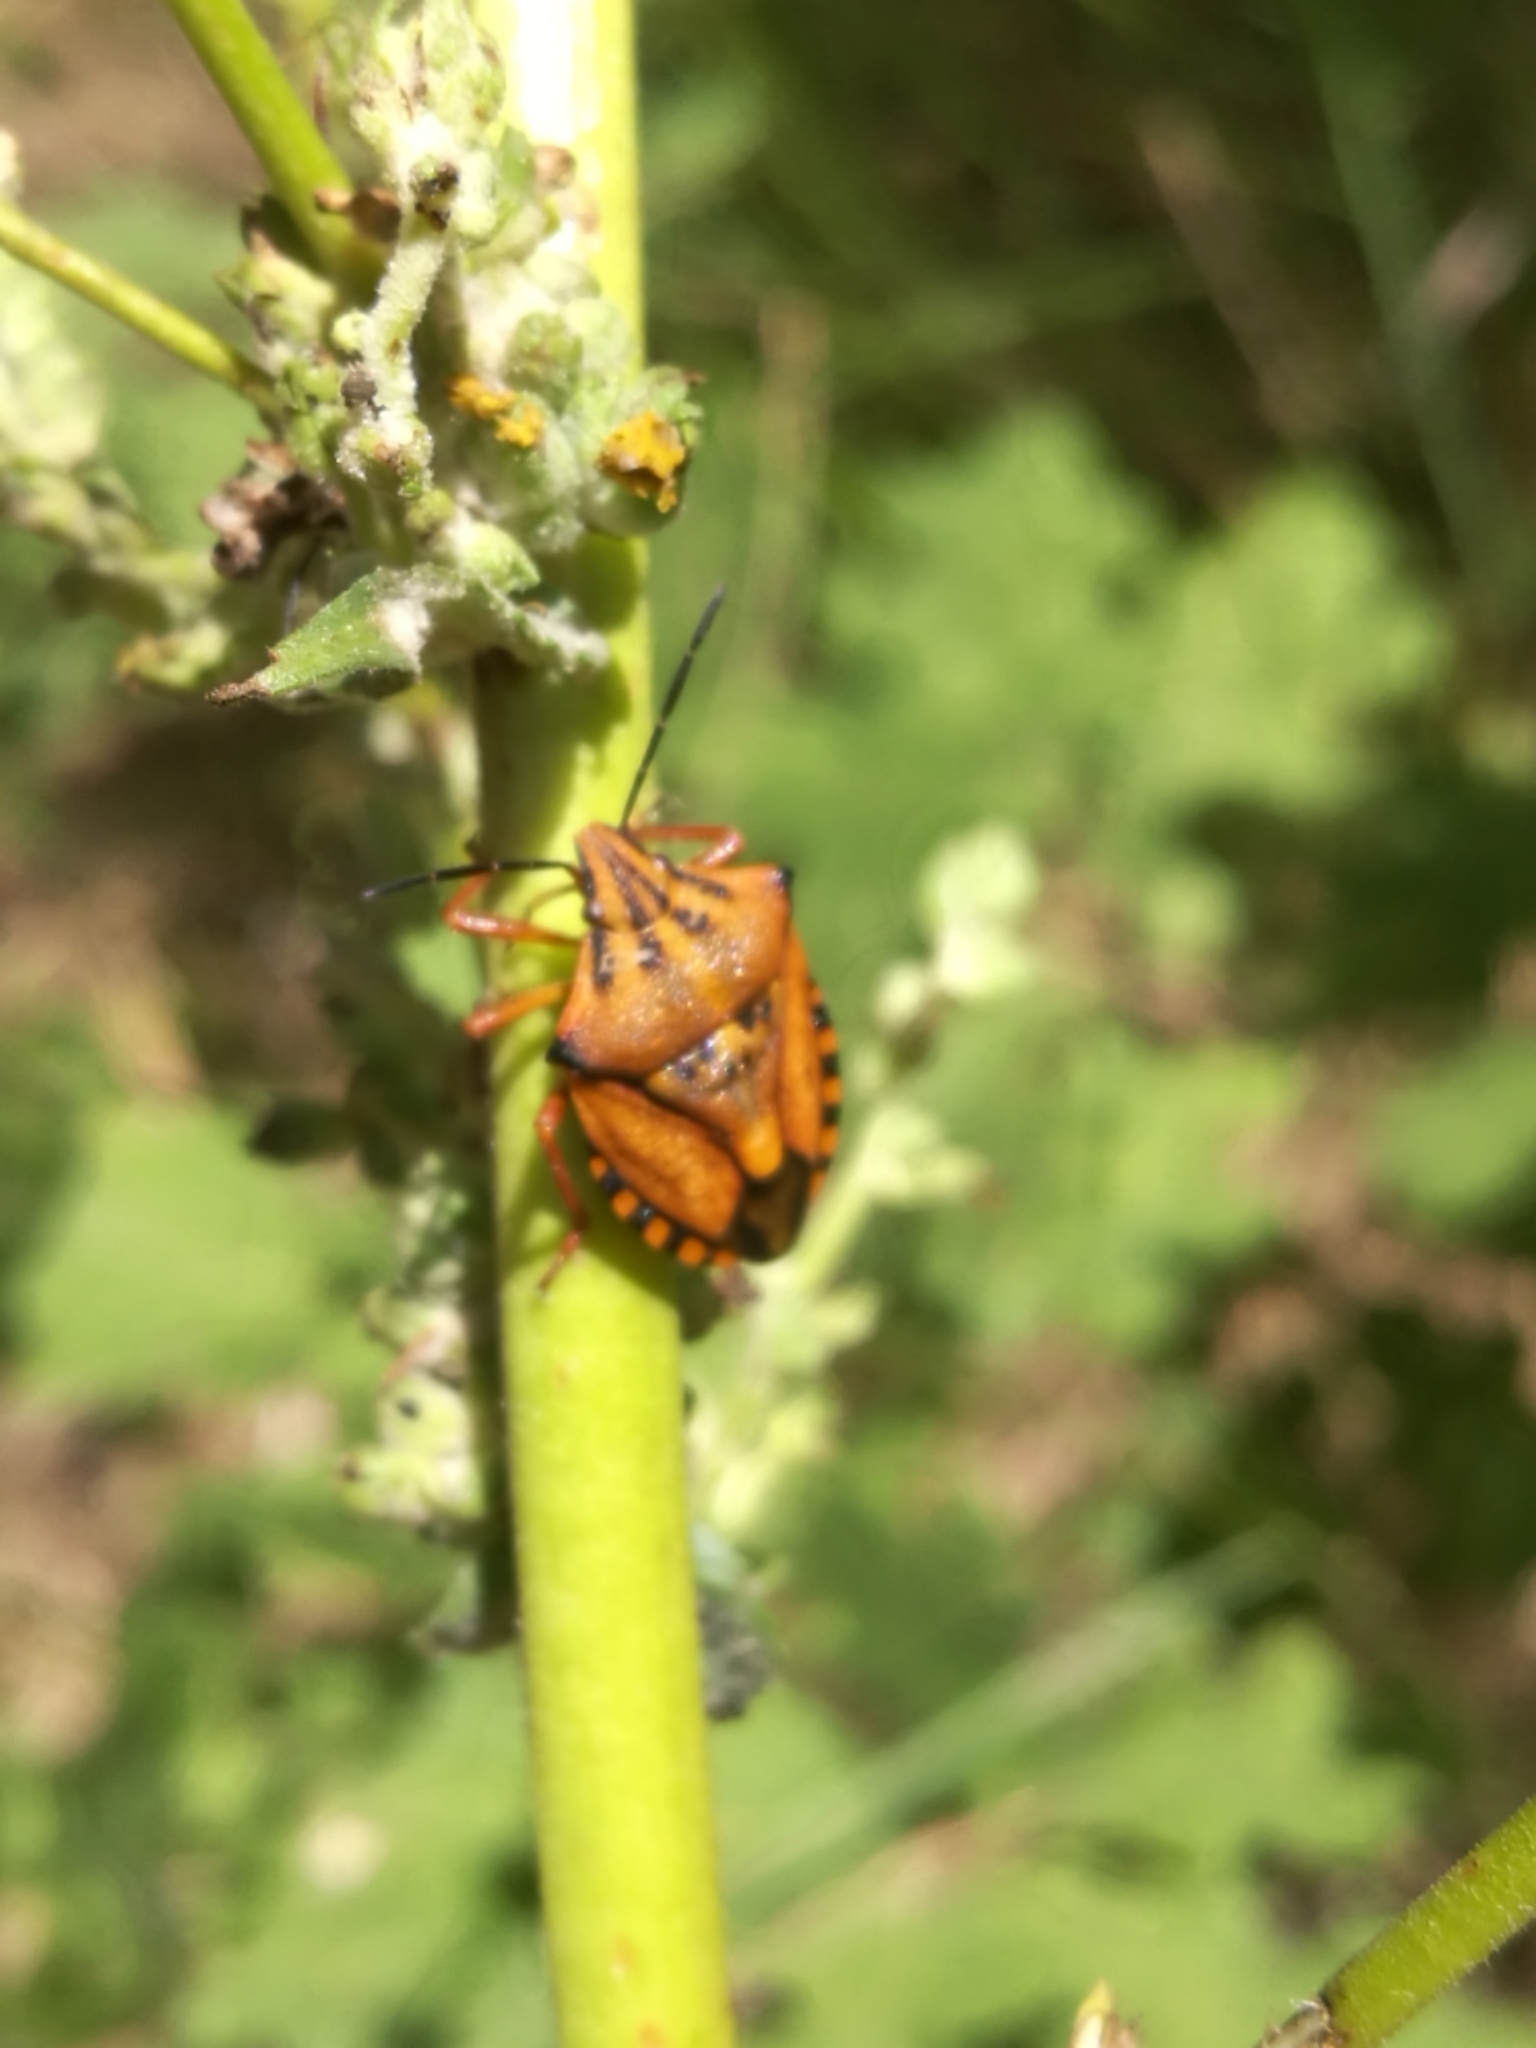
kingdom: Animalia
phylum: Arthropoda
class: Insecta
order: Hemiptera
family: Pentatomidae
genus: Carpocoris
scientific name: Carpocoris mediterraneus
